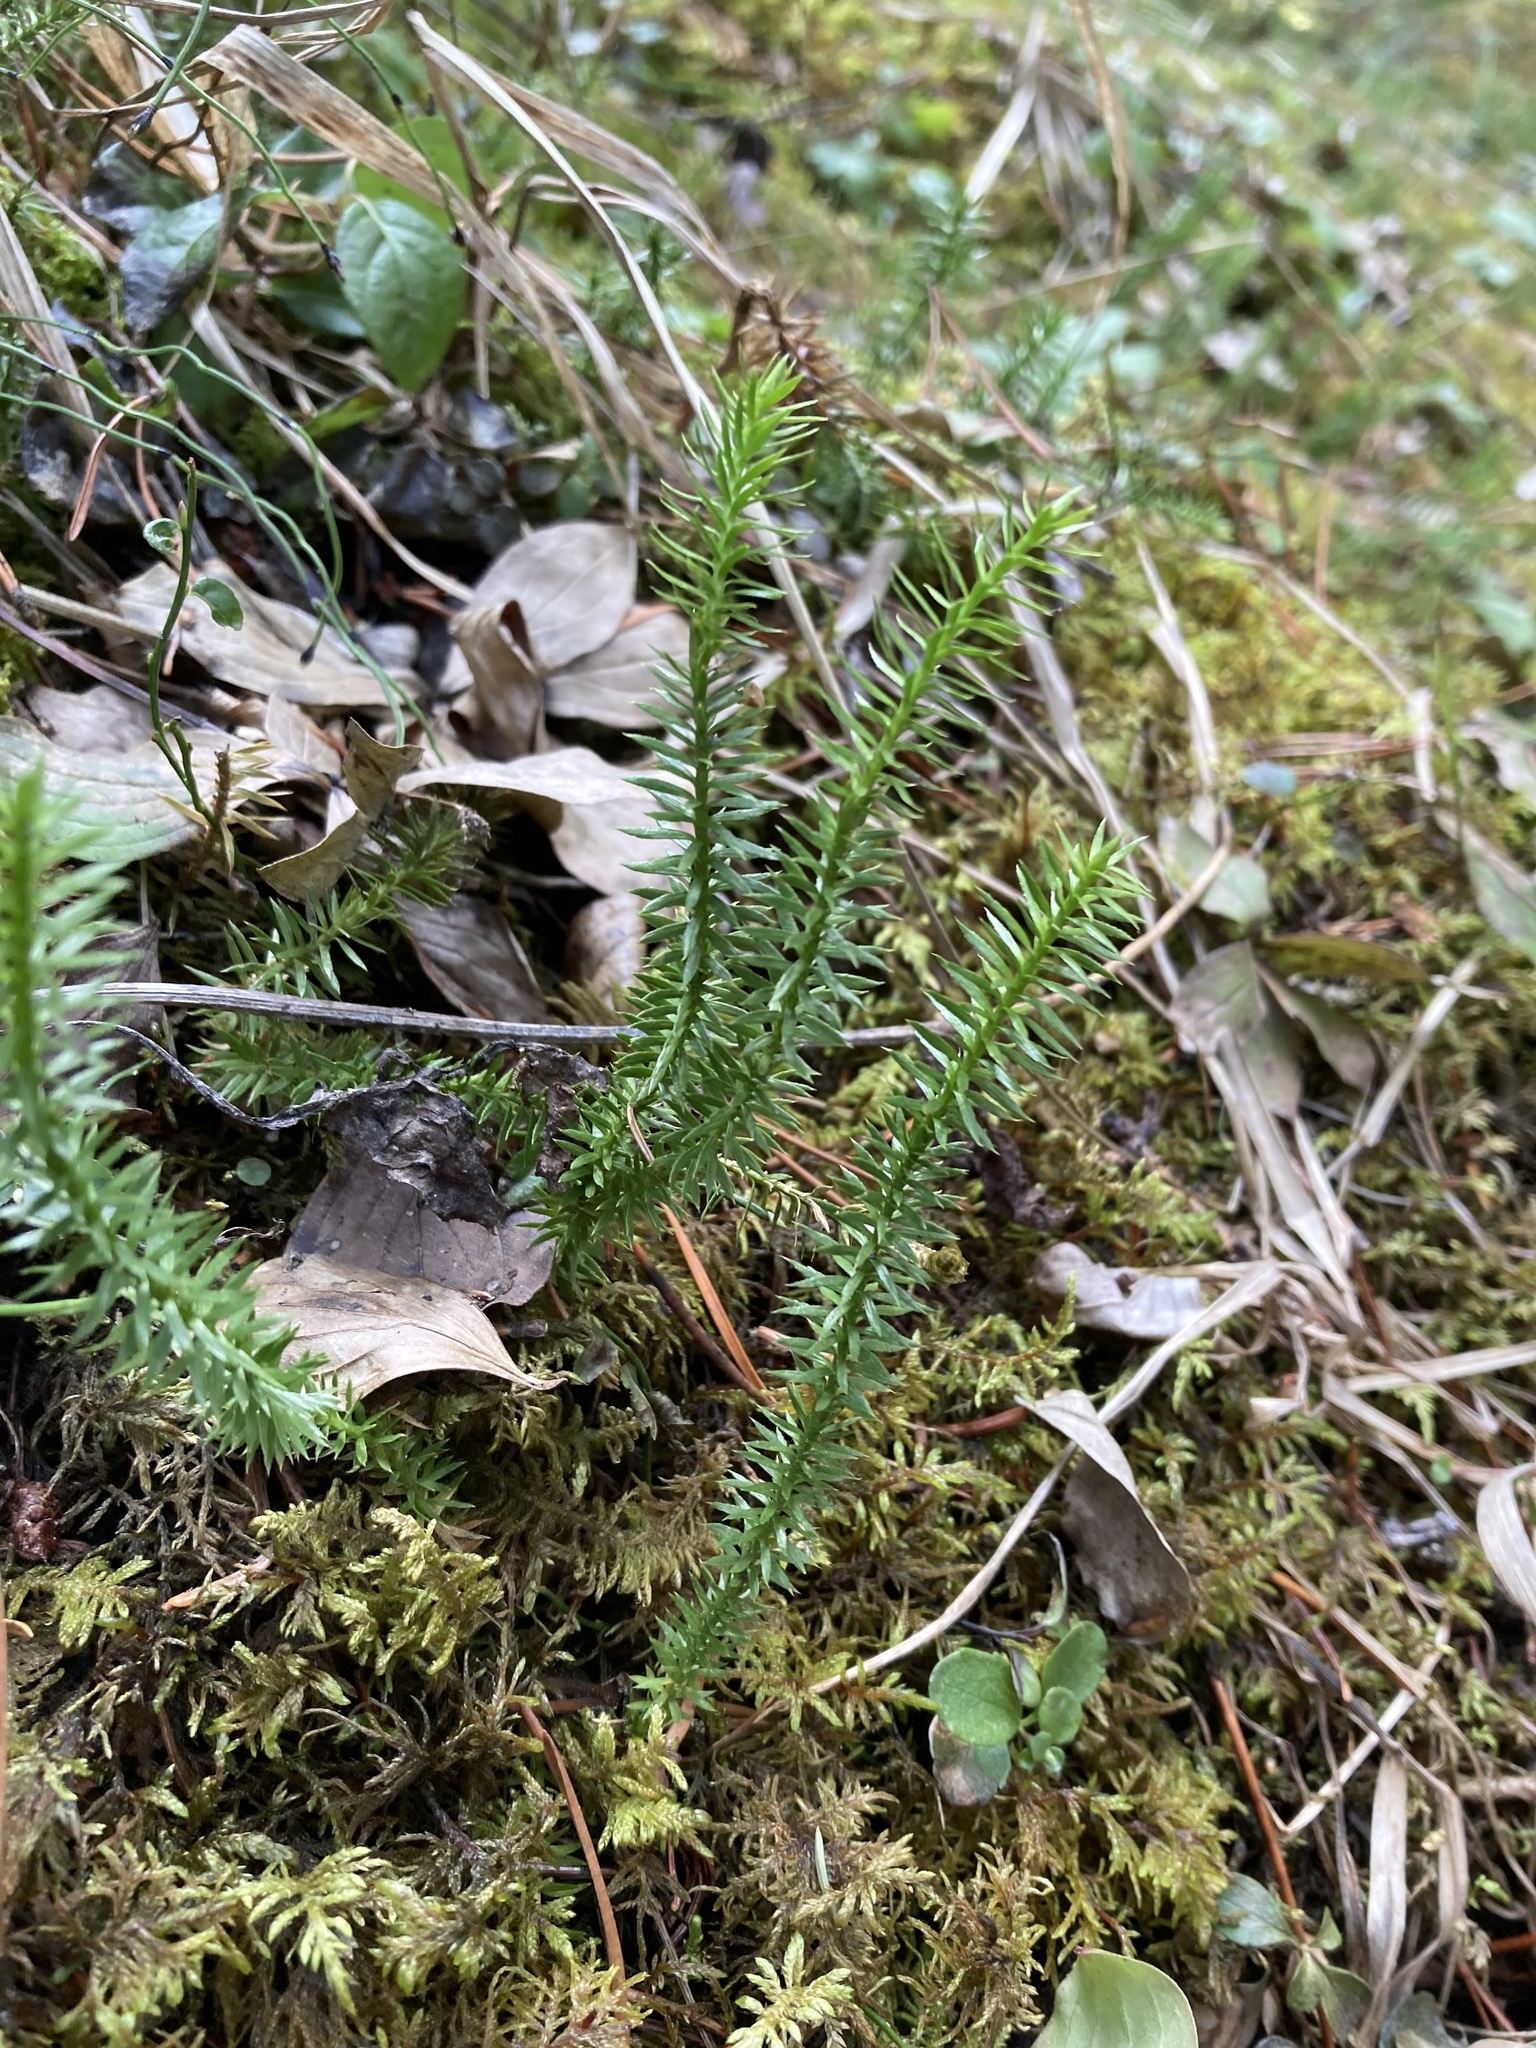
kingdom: Plantae
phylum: Tracheophyta
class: Lycopodiopsida
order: Lycopodiales
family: Lycopodiaceae
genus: Spinulum
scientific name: Spinulum annotinum
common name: Interrupted club-moss
